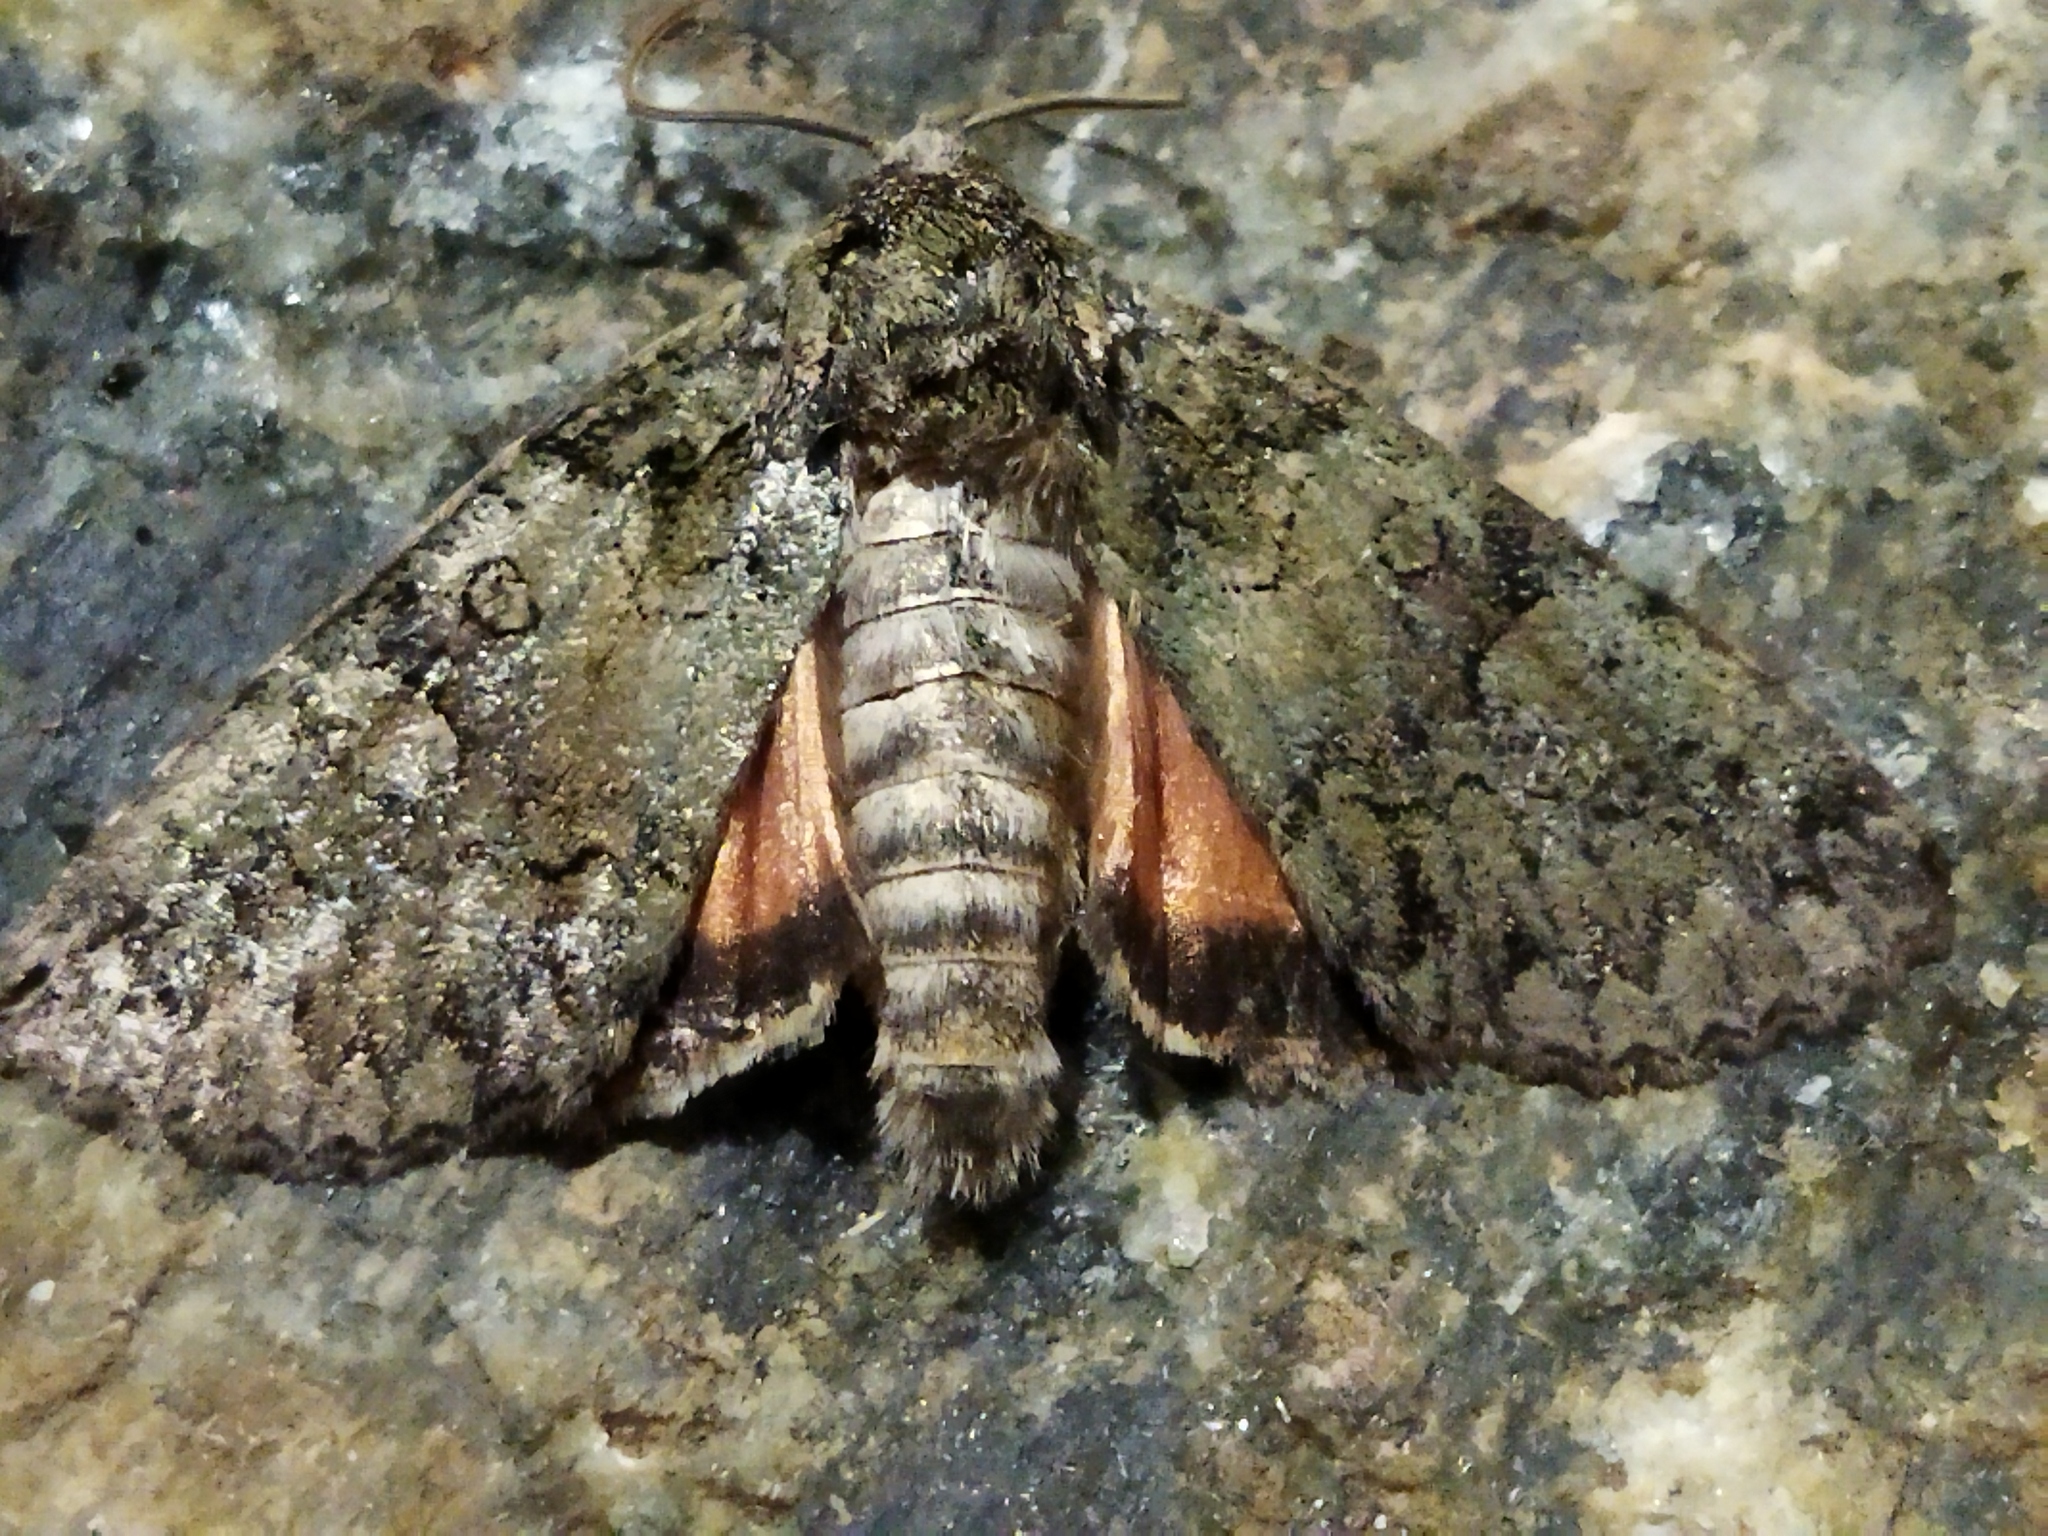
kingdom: Animalia
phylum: Arthropoda
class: Insecta
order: Lepidoptera
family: Noctuidae
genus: Olivenebula
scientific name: Olivenebula subsericata
